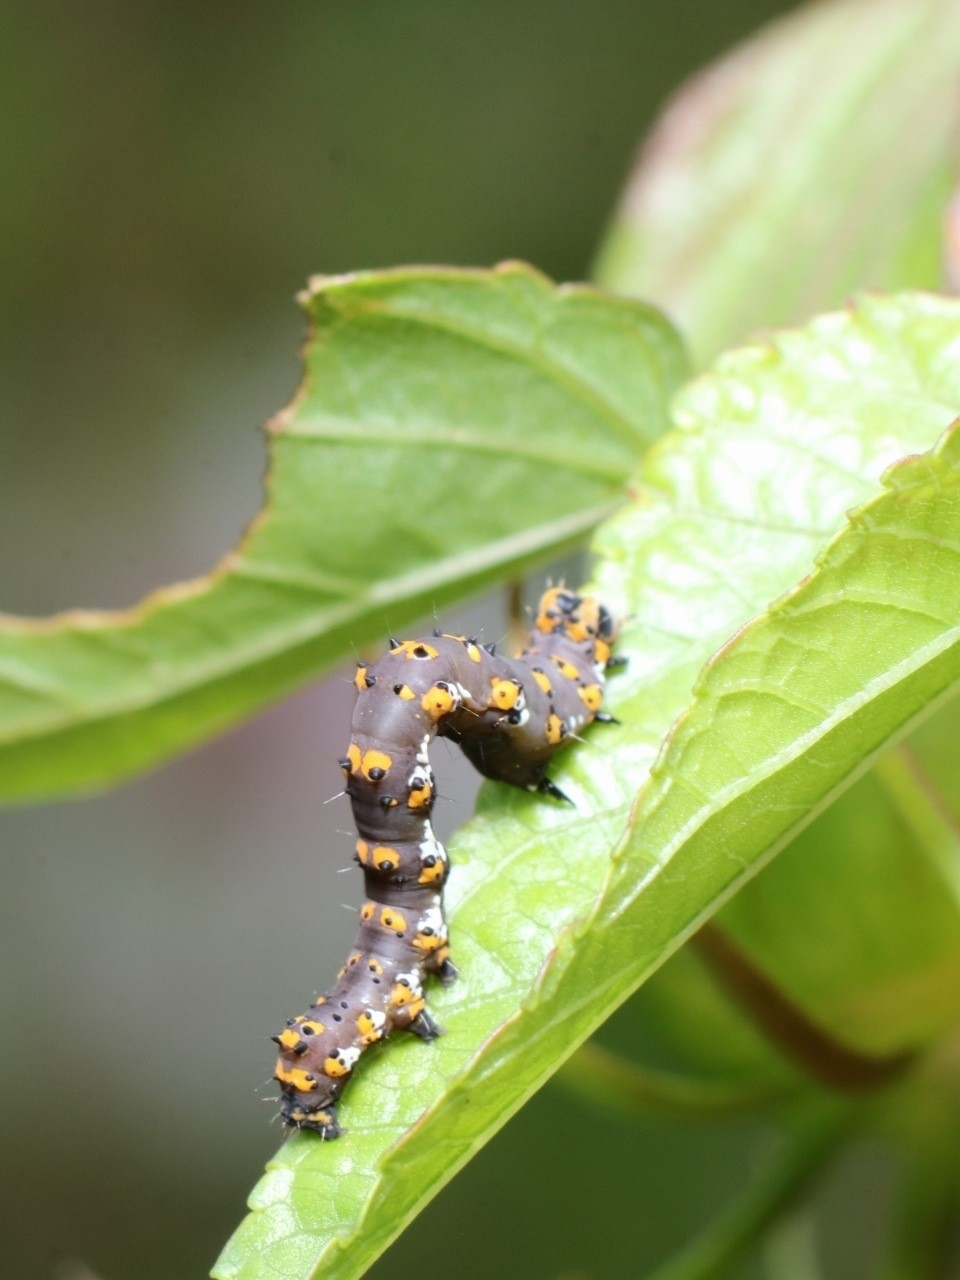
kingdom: Animalia
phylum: Arthropoda
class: Insecta
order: Lepidoptera
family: Noctuidae
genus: Acontia
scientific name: Acontia delecta
